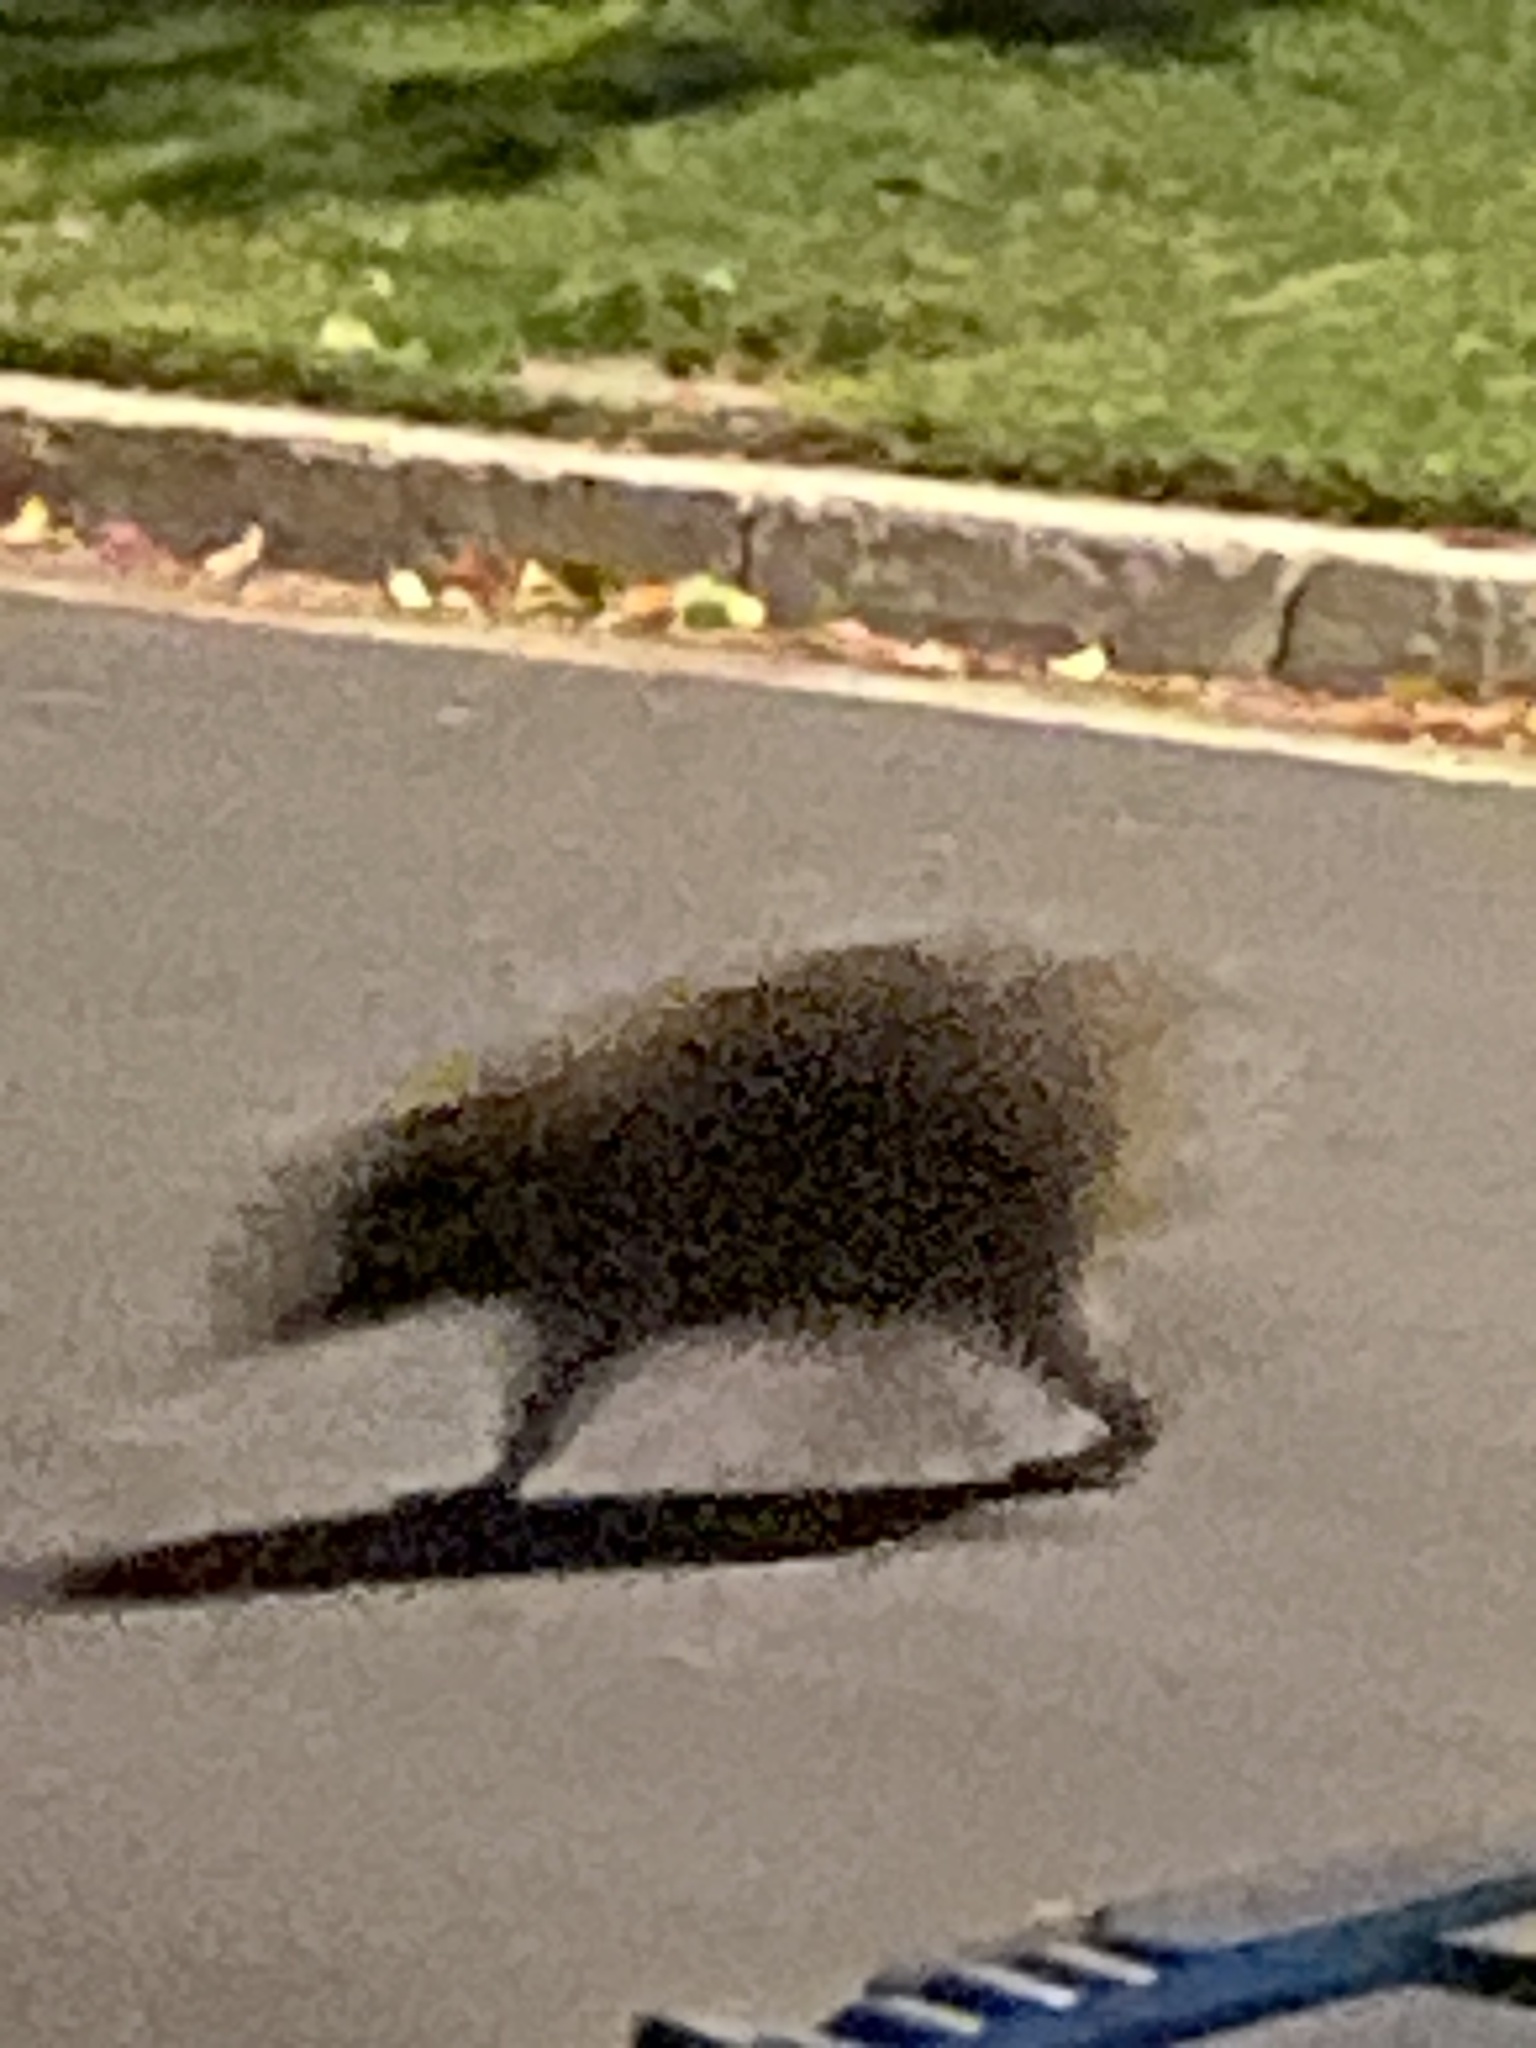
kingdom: Animalia
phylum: Chordata
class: Mammalia
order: Carnivora
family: Procyonidae
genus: Procyon
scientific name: Procyon lotor
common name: Raccoon
